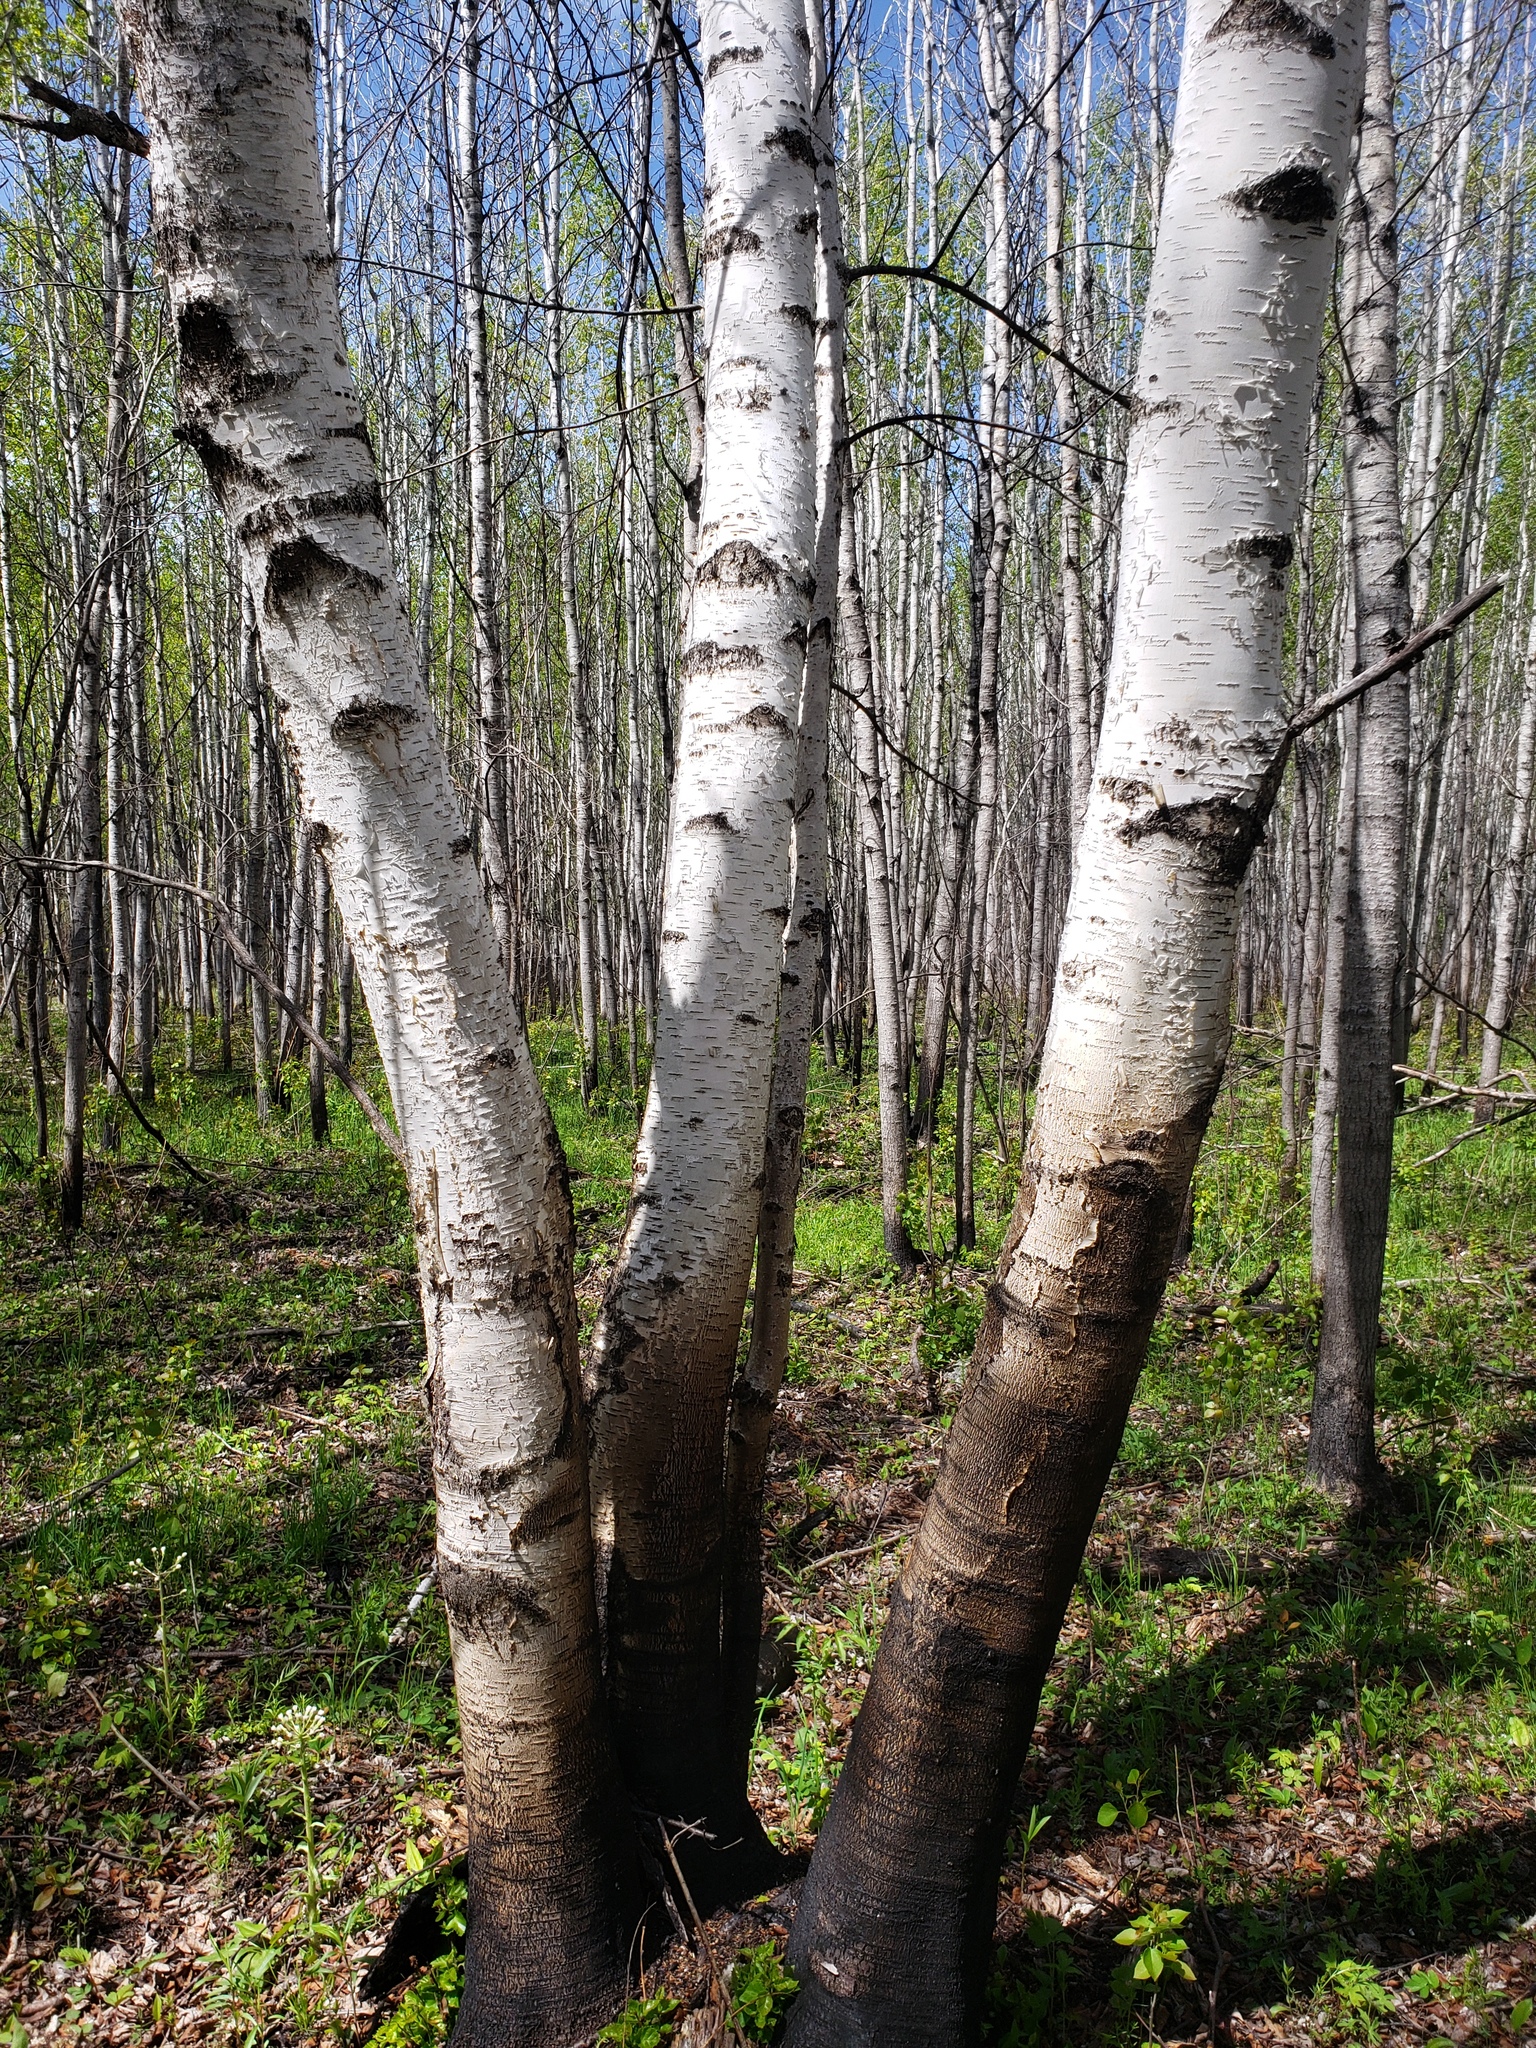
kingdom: Plantae
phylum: Tracheophyta
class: Magnoliopsida
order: Fagales
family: Betulaceae
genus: Betula
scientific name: Betula papyrifera
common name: Paper birch
